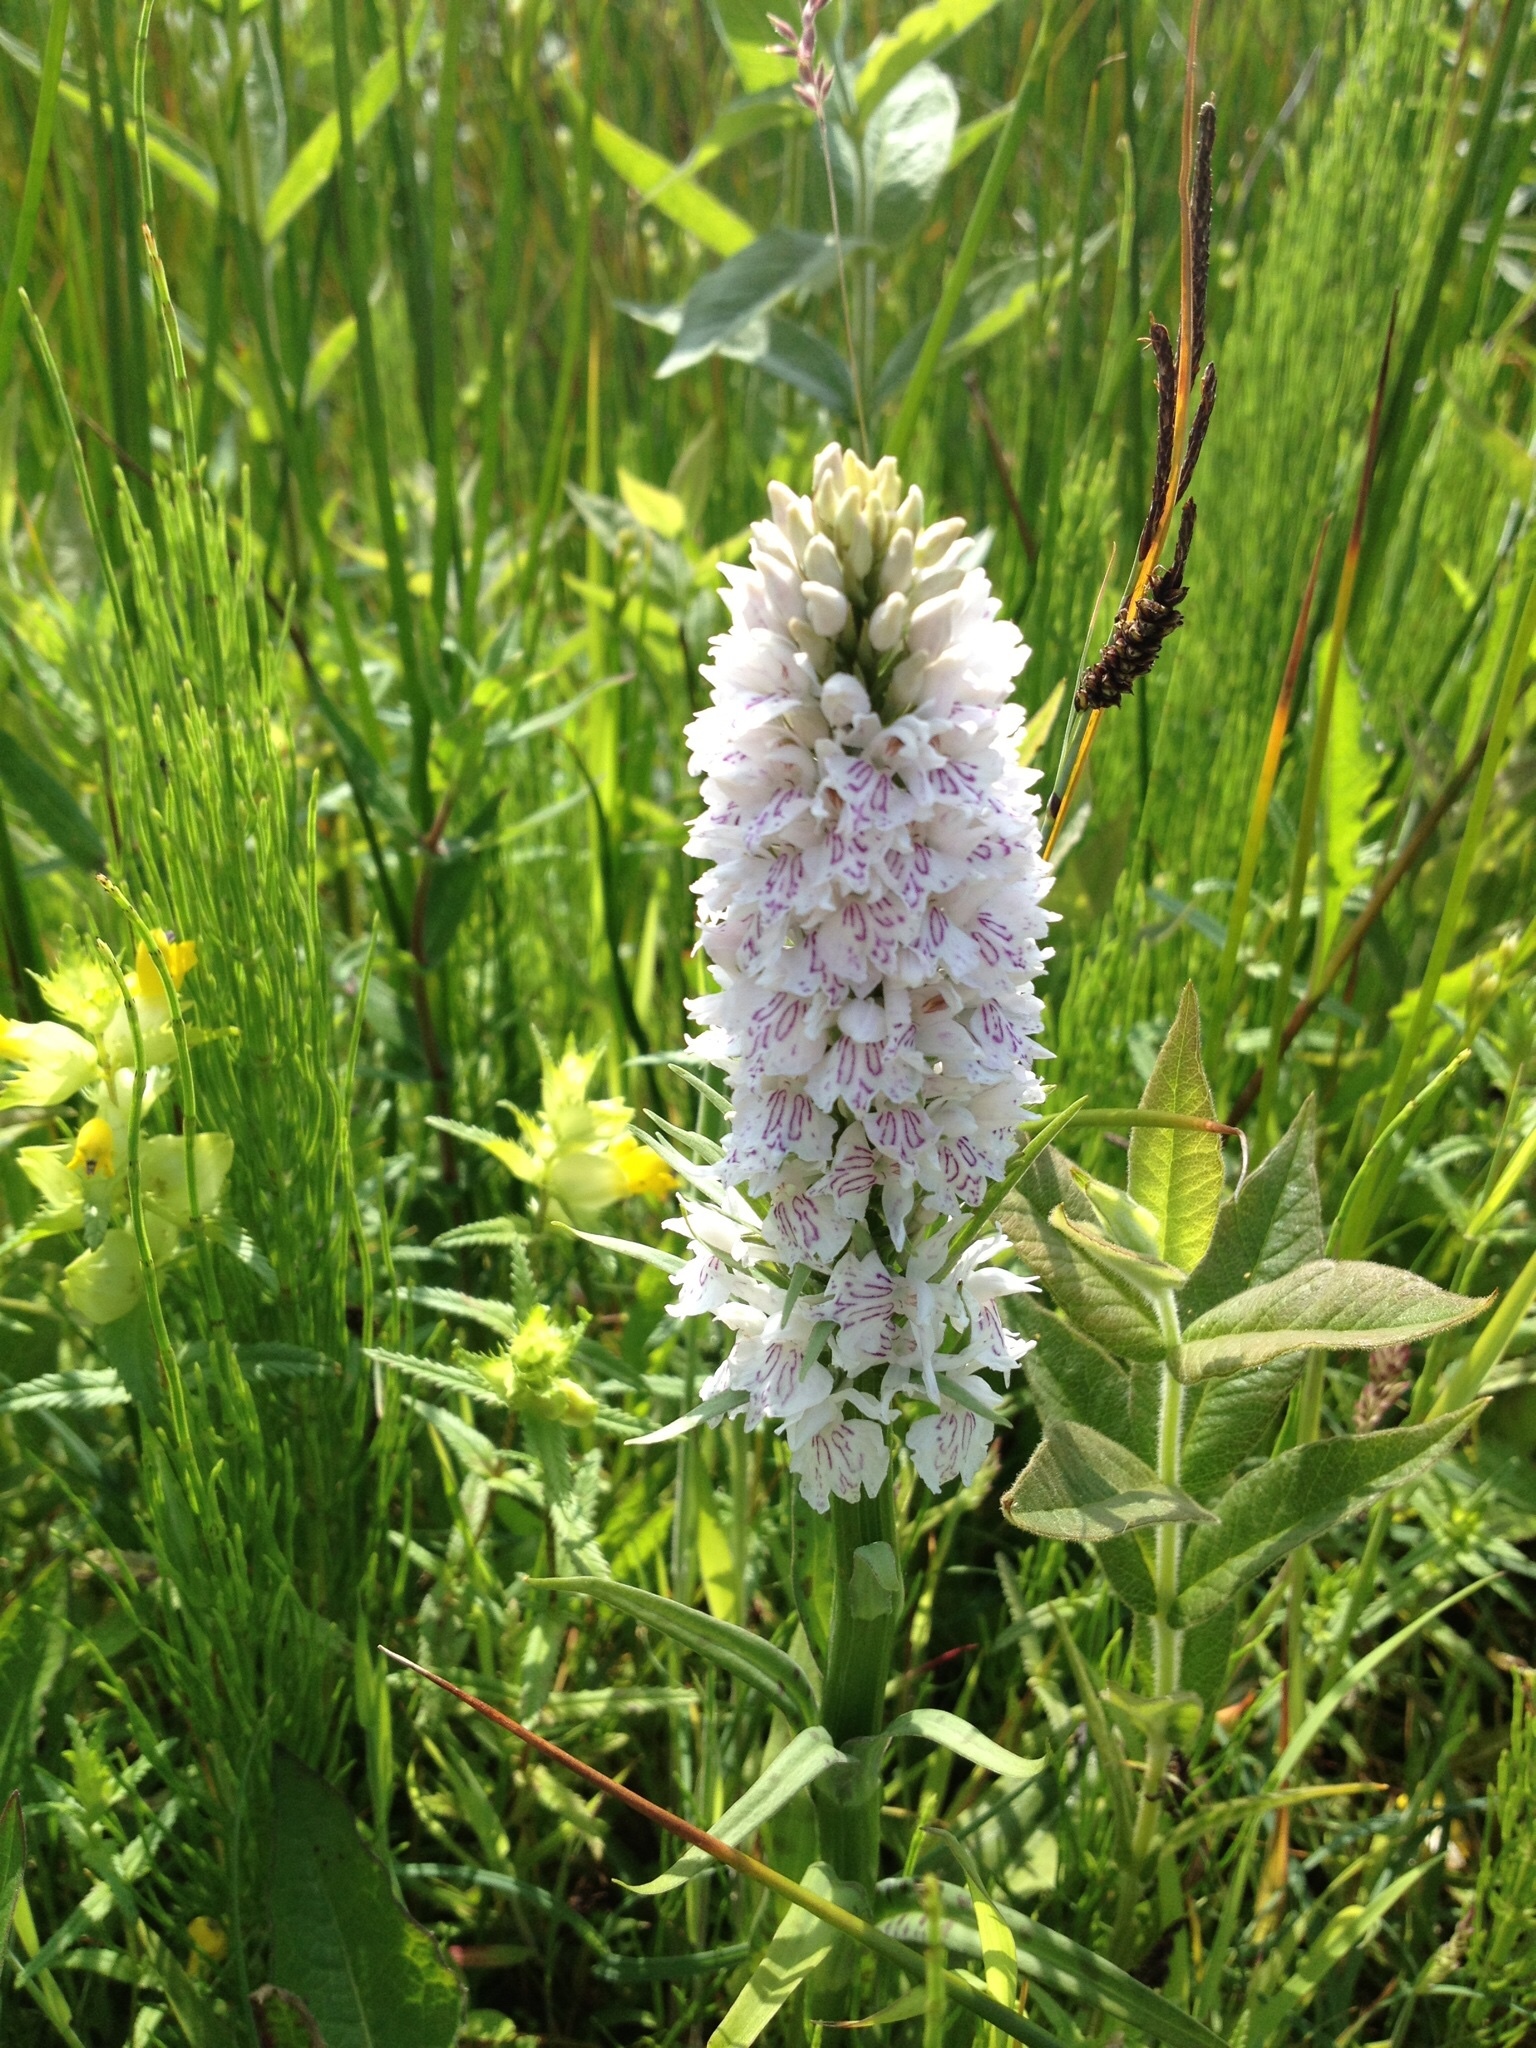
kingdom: Plantae
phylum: Tracheophyta
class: Liliopsida
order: Asparagales
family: Orchidaceae
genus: Dactylorhiza
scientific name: Dactylorhiza maculata
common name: Heath spotted-orchid
